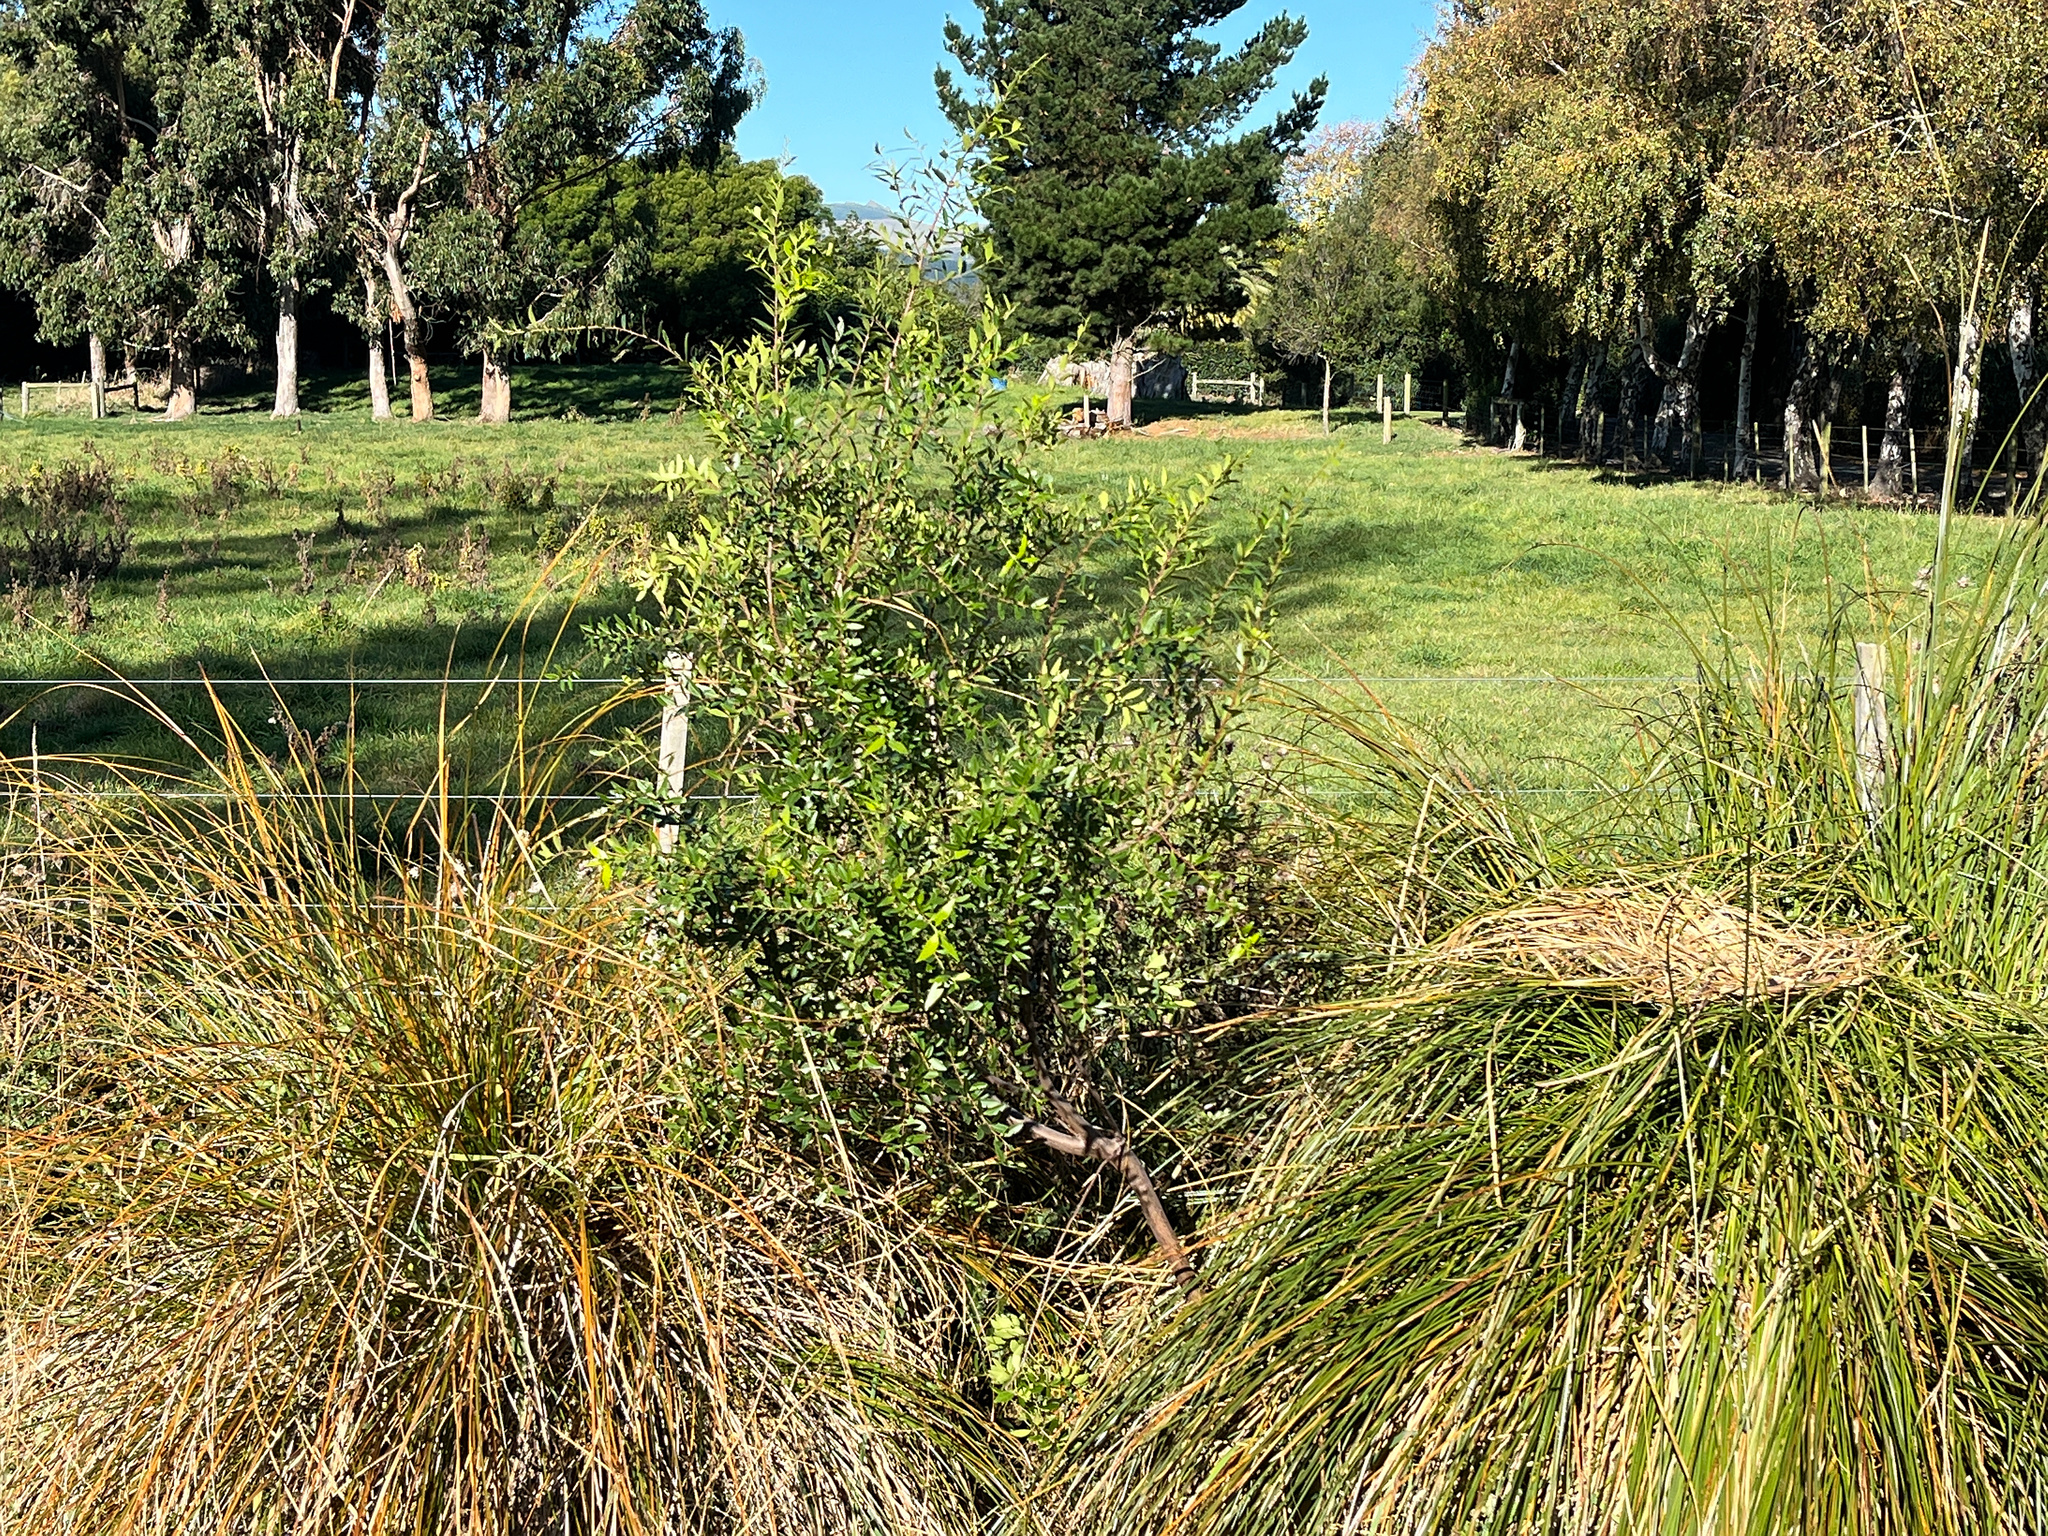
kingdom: Plantae
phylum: Tracheophyta
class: Magnoliopsida
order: Celastrales
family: Celastraceae
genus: Maytenus
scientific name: Maytenus boaria
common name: Mayten
